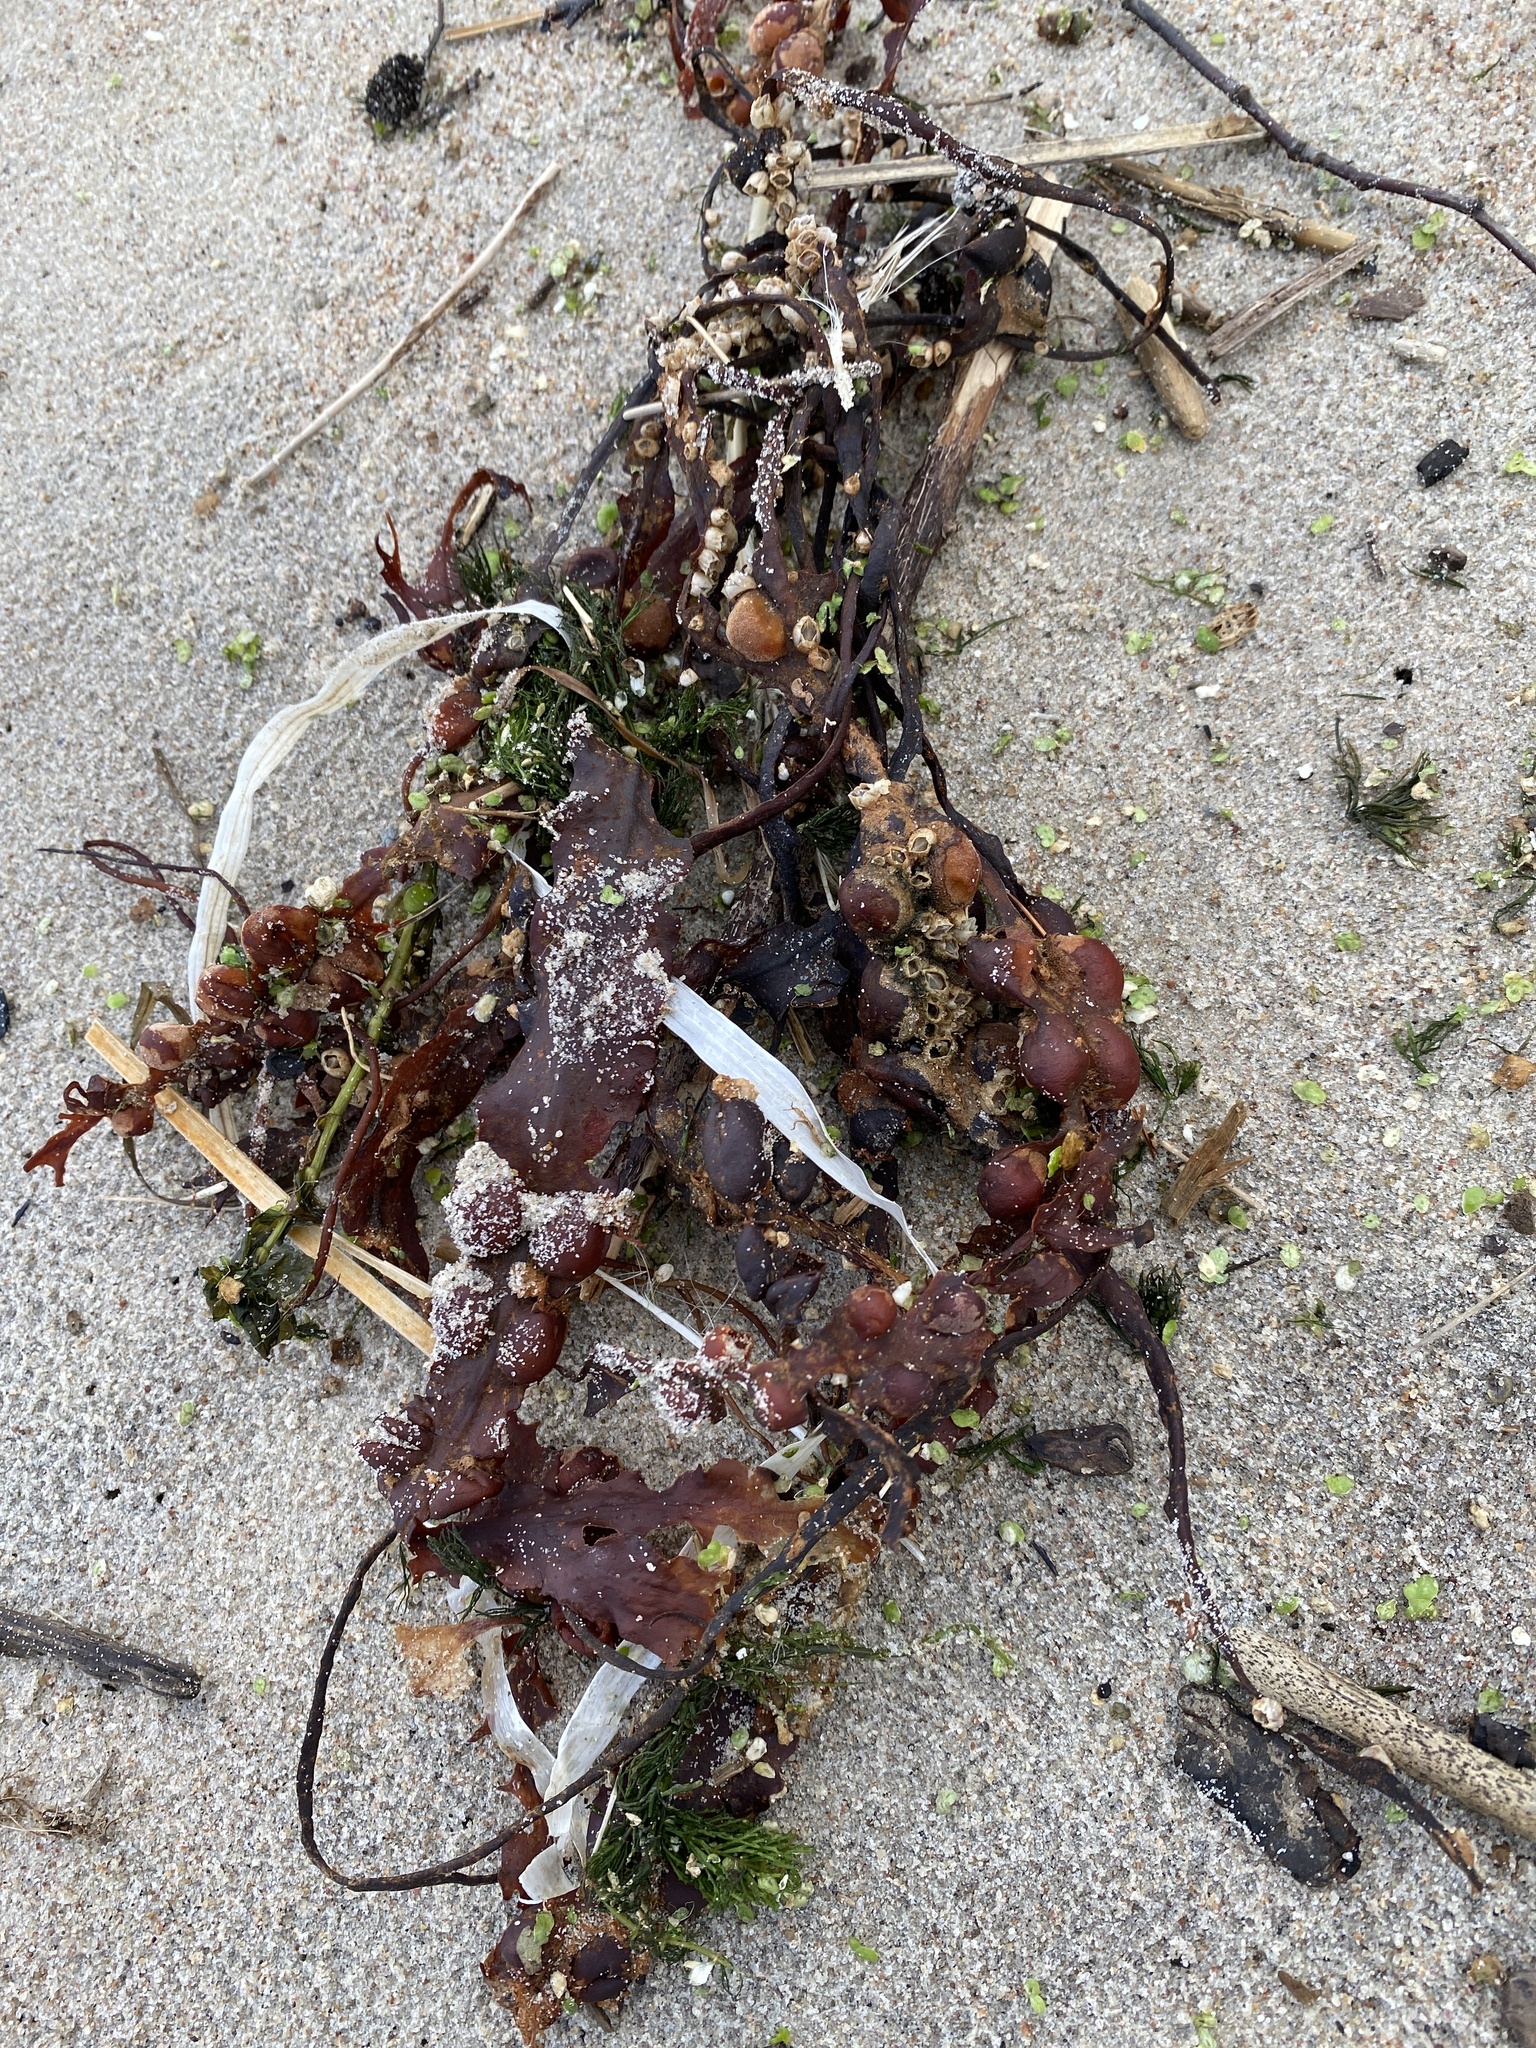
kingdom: Chromista
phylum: Ochrophyta
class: Phaeophyceae
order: Fucales
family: Fucaceae
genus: Fucus
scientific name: Fucus vesiculosus
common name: Bladder wrack
